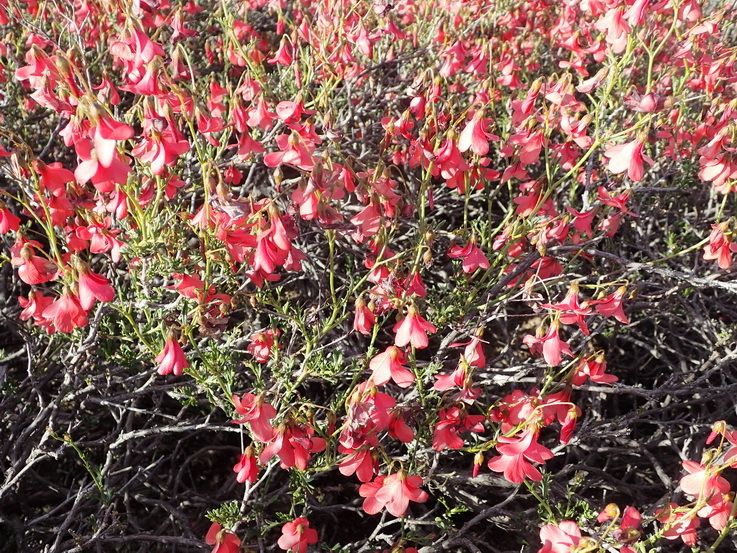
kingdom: Plantae
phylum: Tracheophyta
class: Magnoliopsida
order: Malvales
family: Malvaceae
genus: Hermannia
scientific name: Hermannia grandiflora
